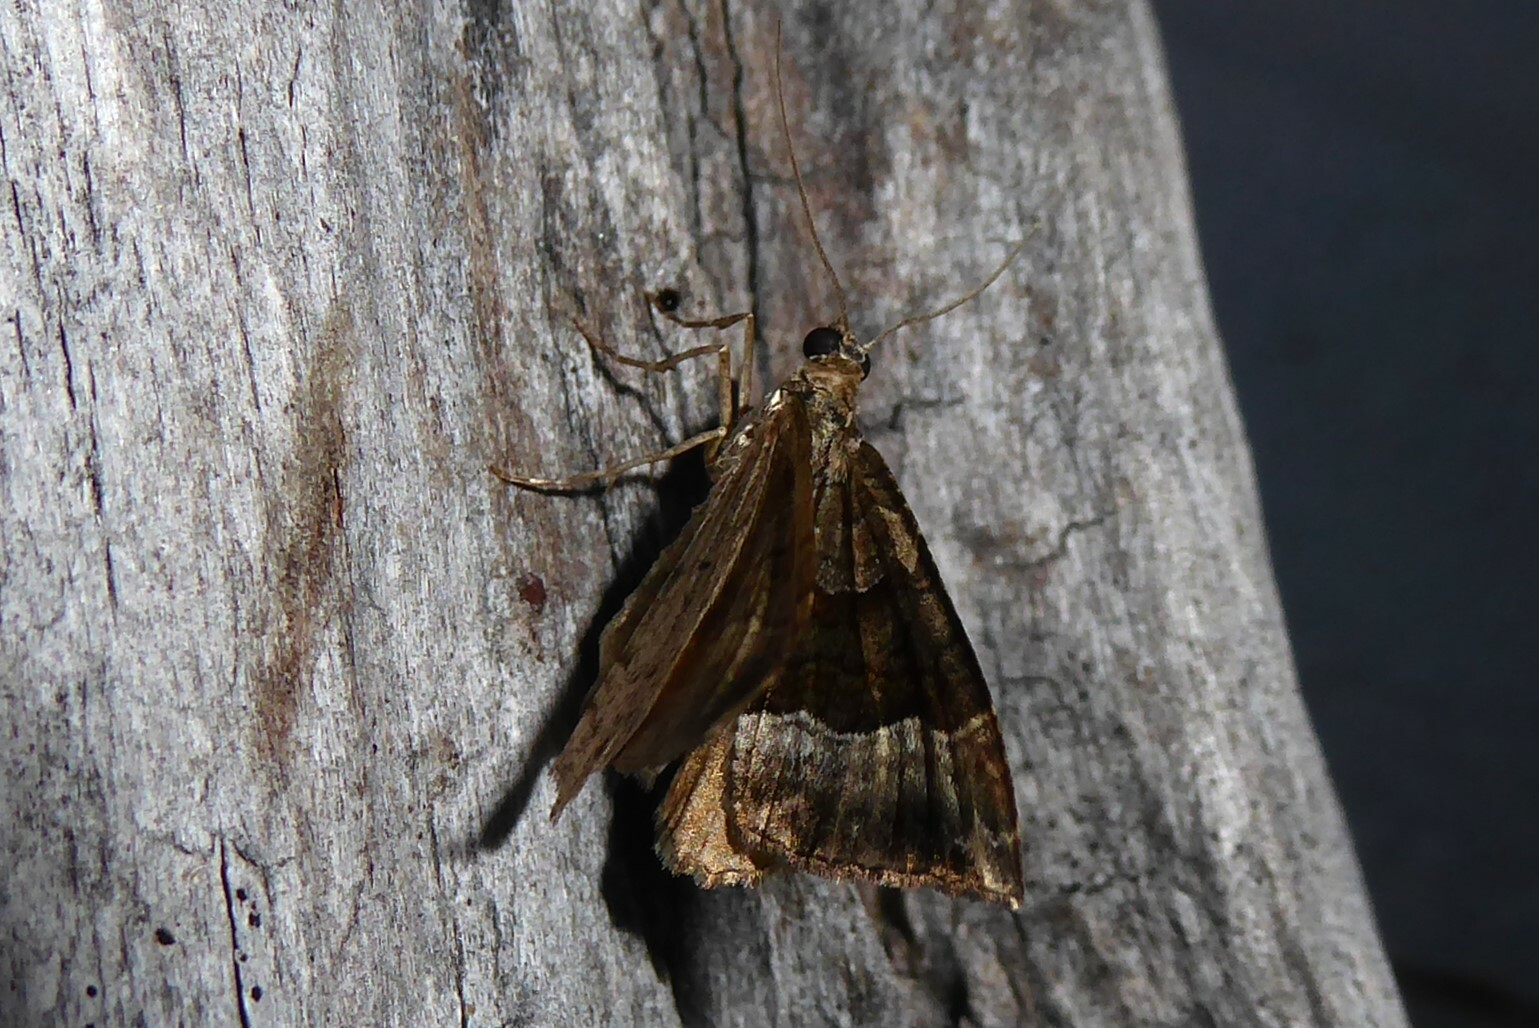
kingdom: Animalia
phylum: Arthropoda
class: Insecta
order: Lepidoptera
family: Geometridae
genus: Hydriomena
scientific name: Hydriomena deltoidata
